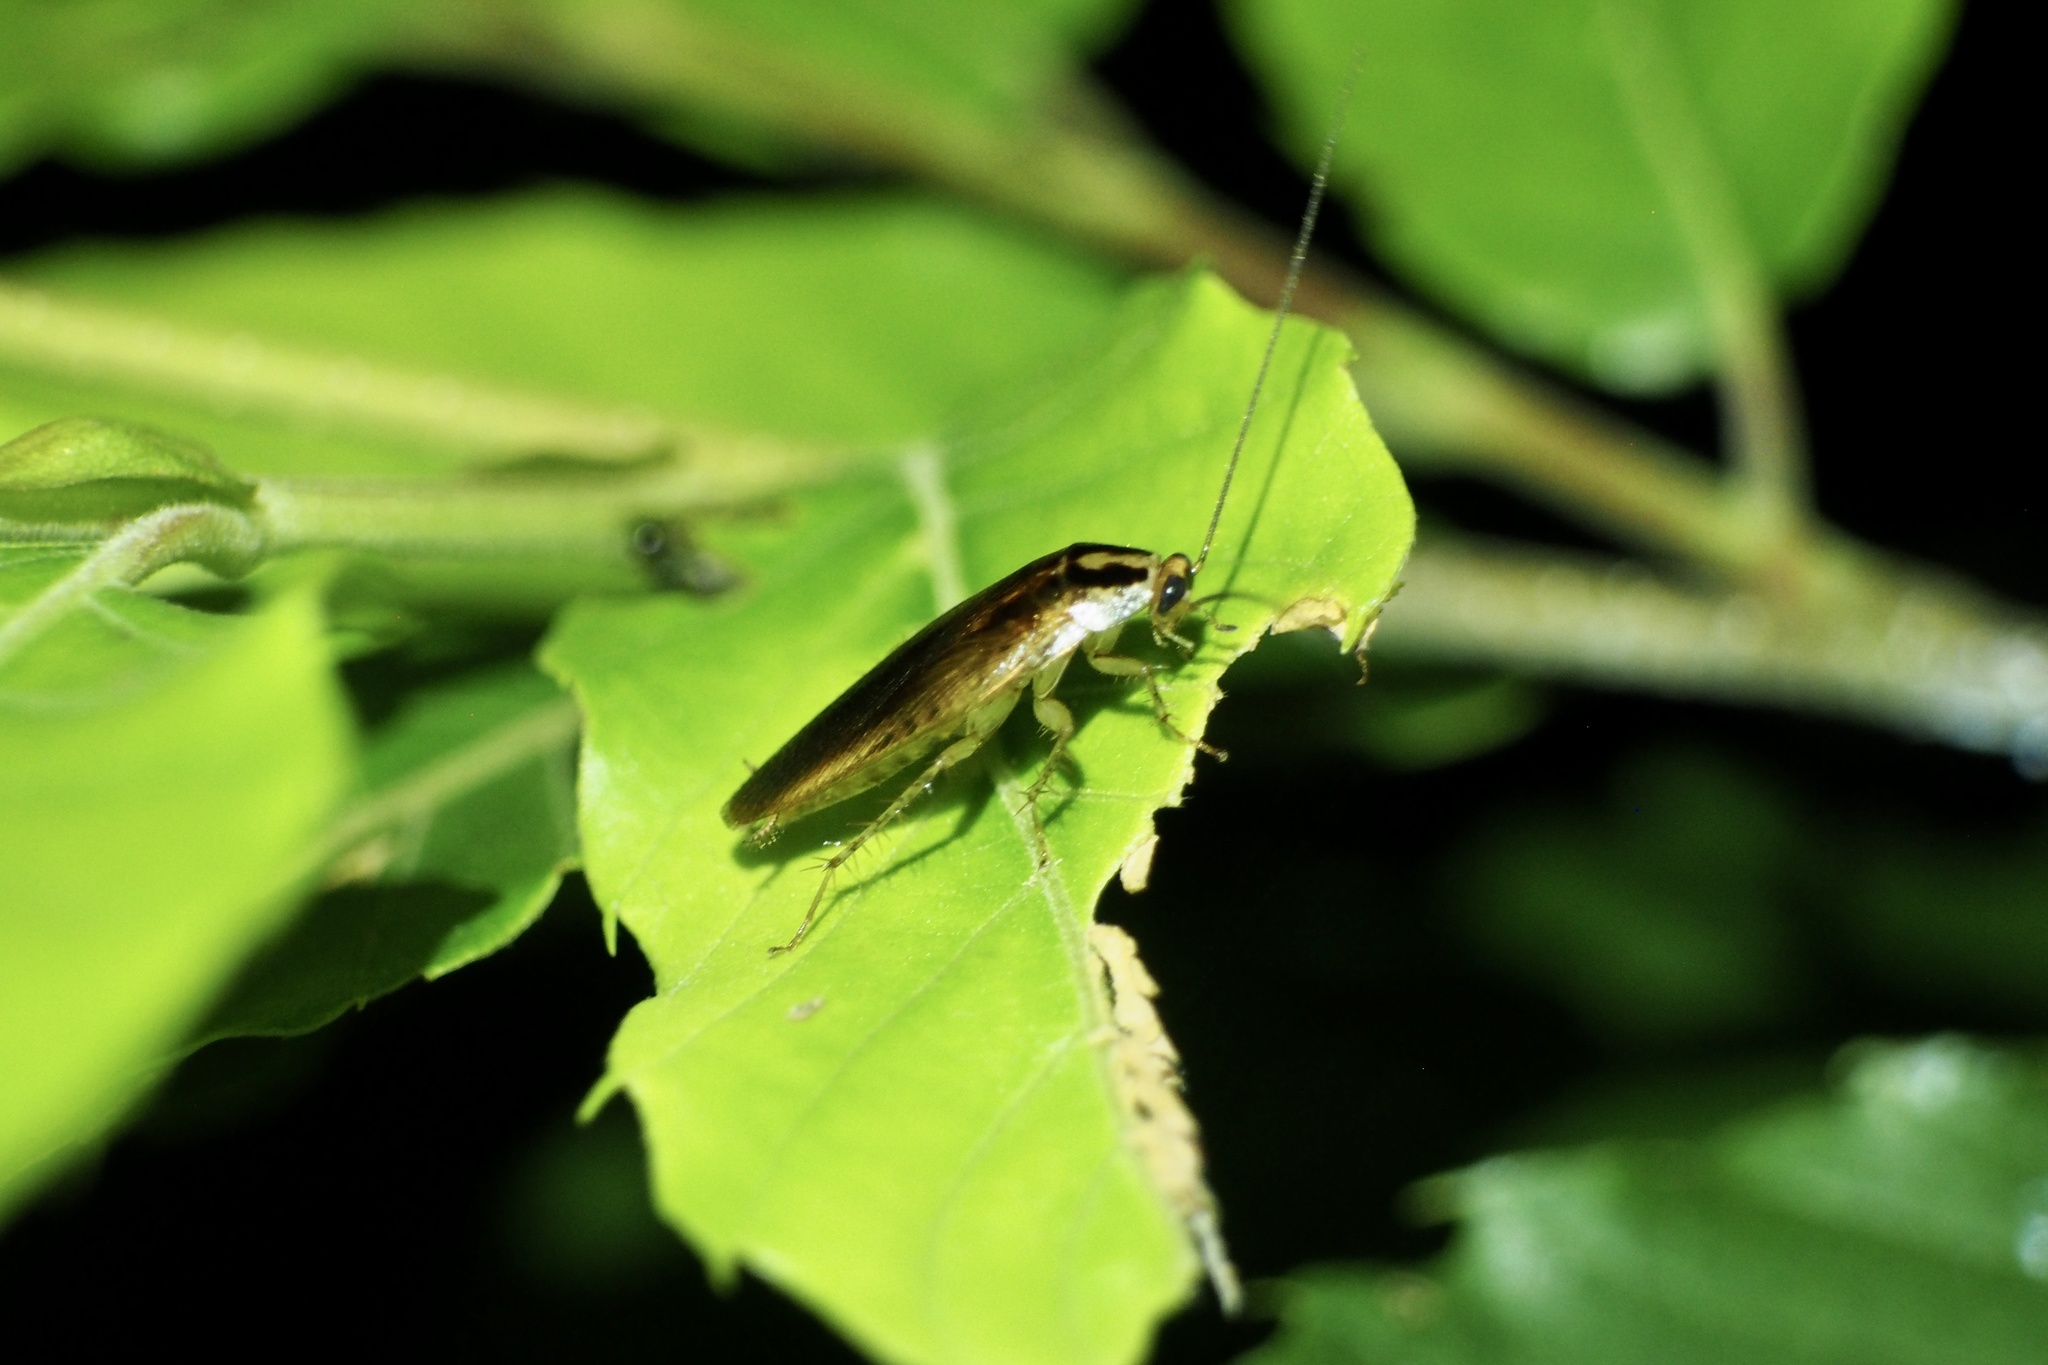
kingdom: Animalia
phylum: Arthropoda
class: Insecta
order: Blattodea
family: Ectobiidae
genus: Blattella
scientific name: Blattella nipponica
